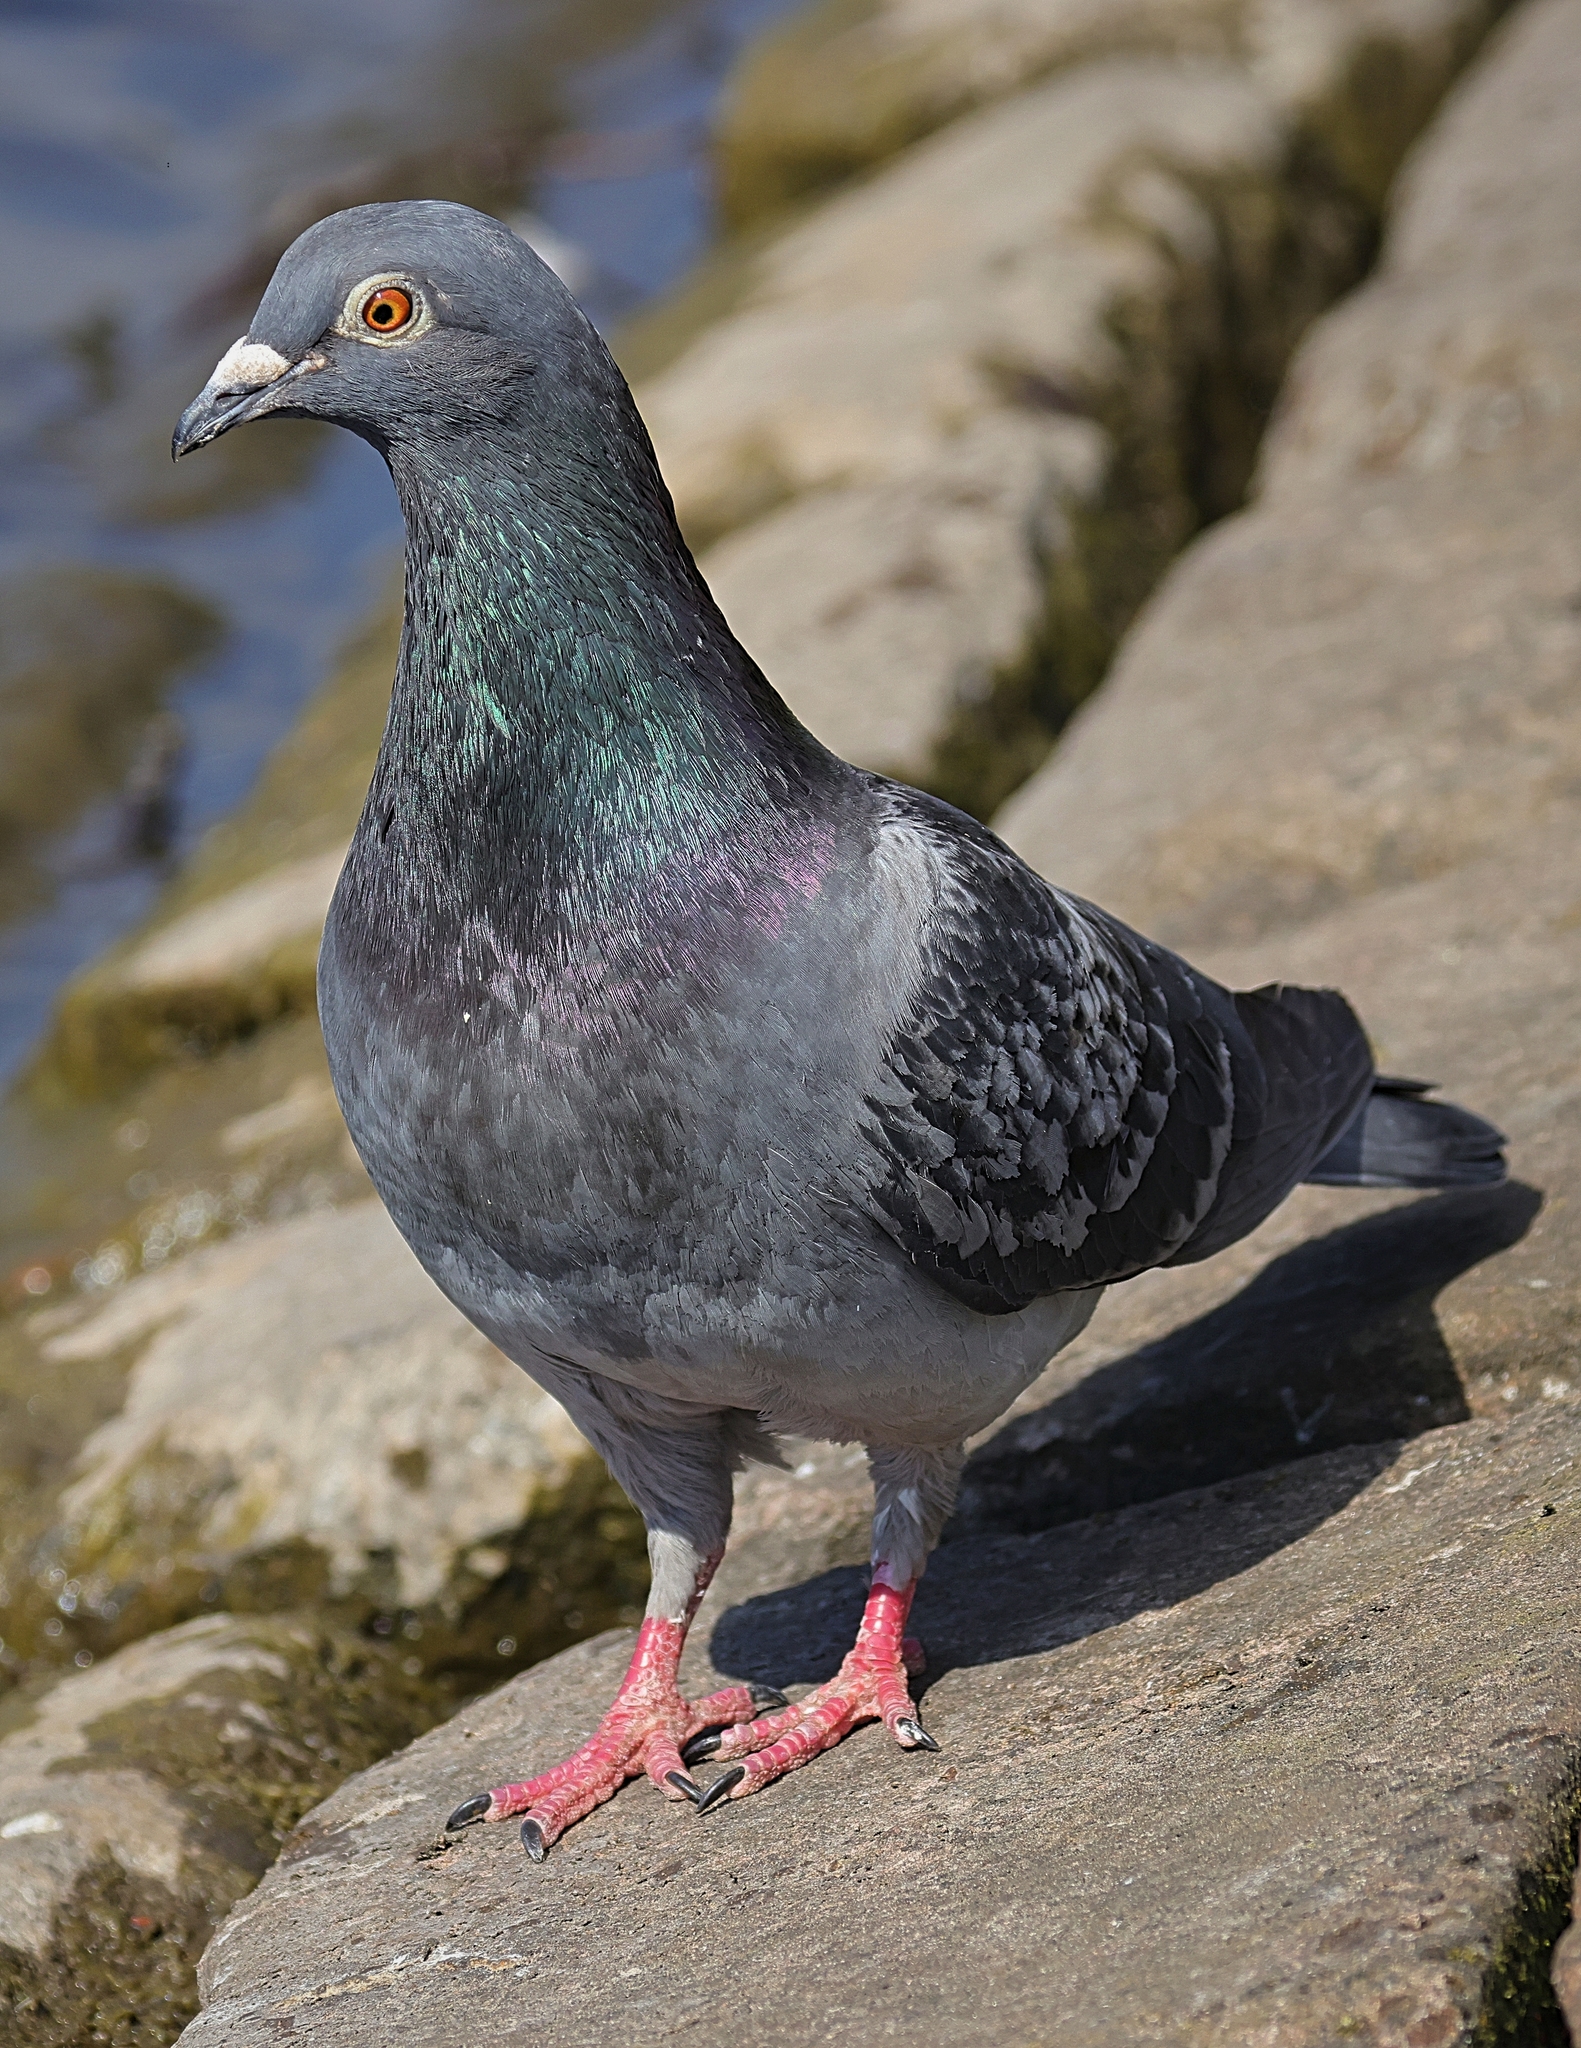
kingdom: Animalia
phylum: Chordata
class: Aves
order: Columbiformes
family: Columbidae
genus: Columba
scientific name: Columba livia
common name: Rock pigeon
